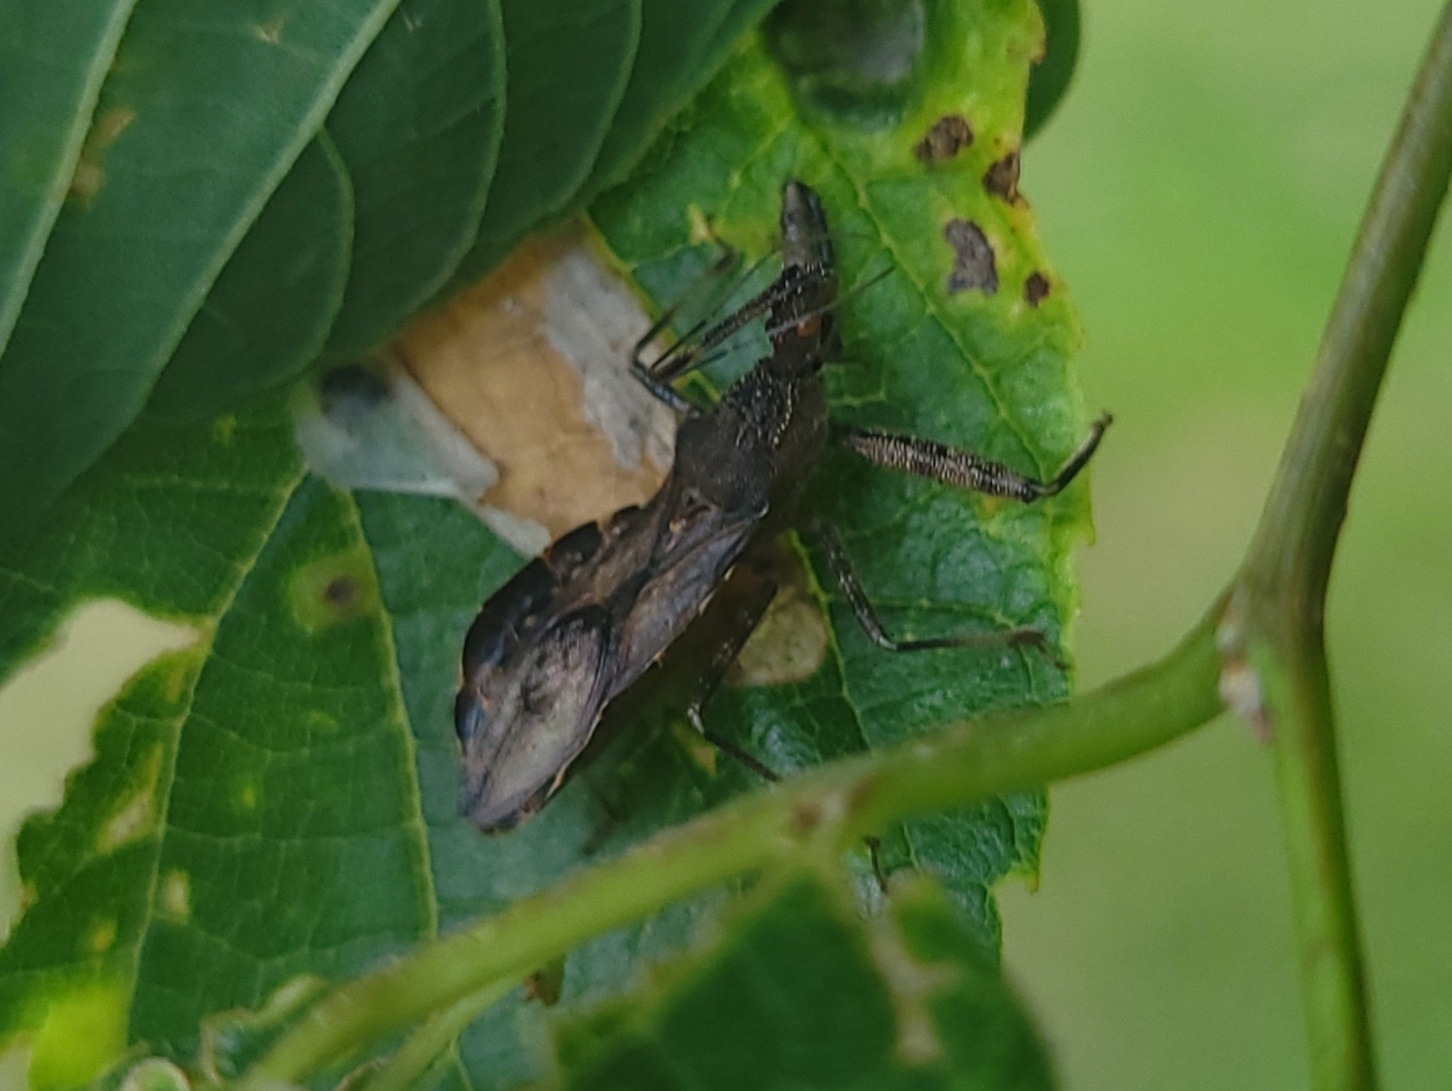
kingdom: Animalia
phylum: Arthropoda
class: Insecta
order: Hemiptera
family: Reduviidae
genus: Acholla
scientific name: Acholla multispinosa
